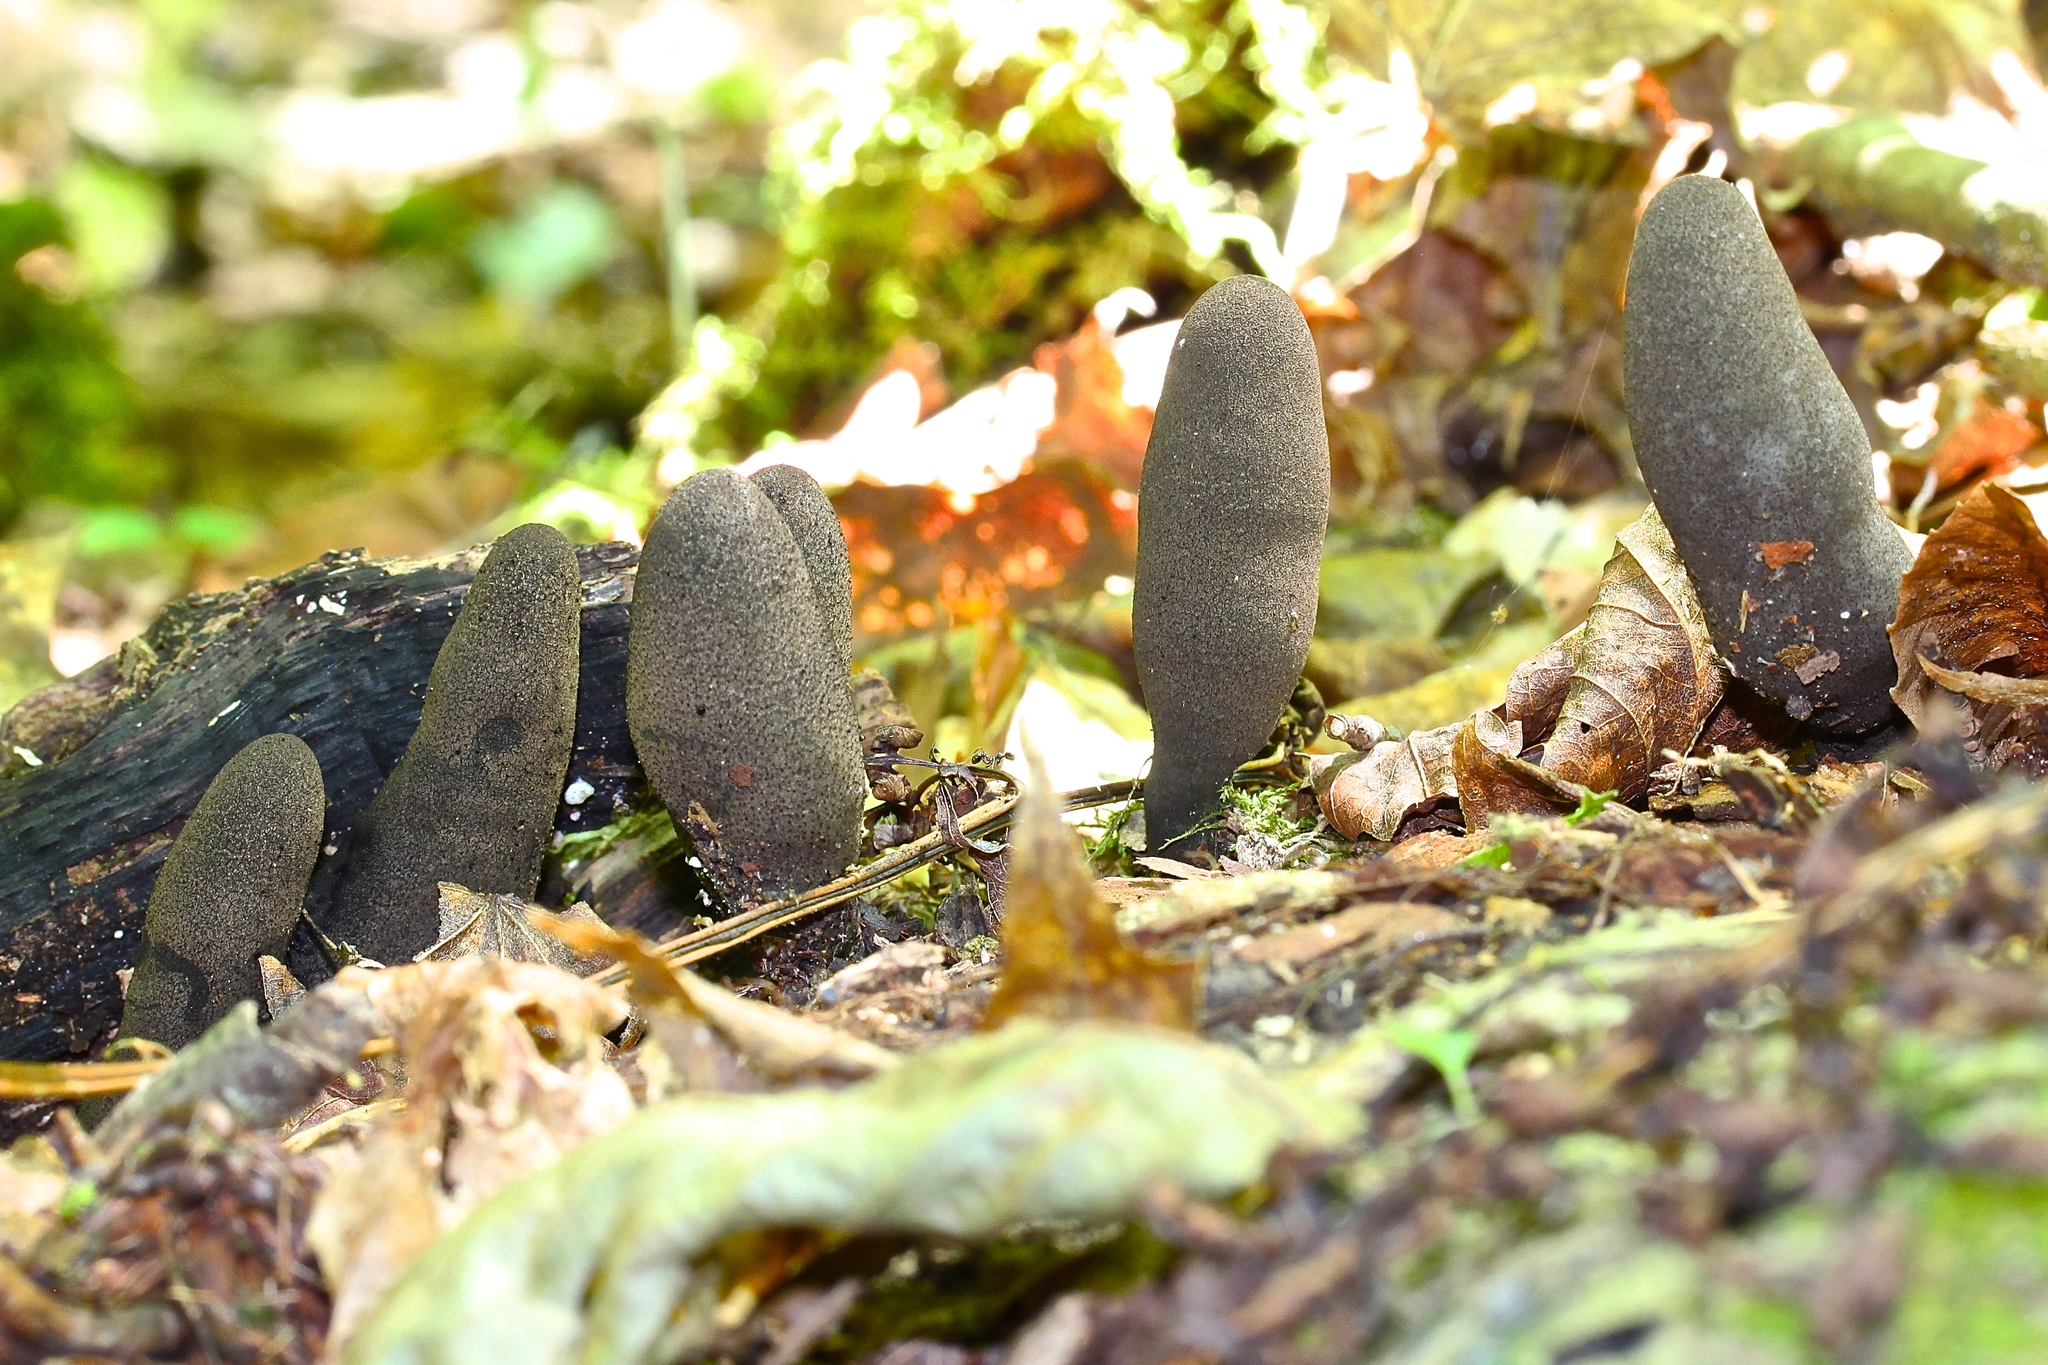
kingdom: Fungi
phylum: Ascomycota
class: Sordariomycetes
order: Xylariales
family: Xylariaceae
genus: Xylaria
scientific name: Xylaria polymorpha
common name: Dead man's fingers
